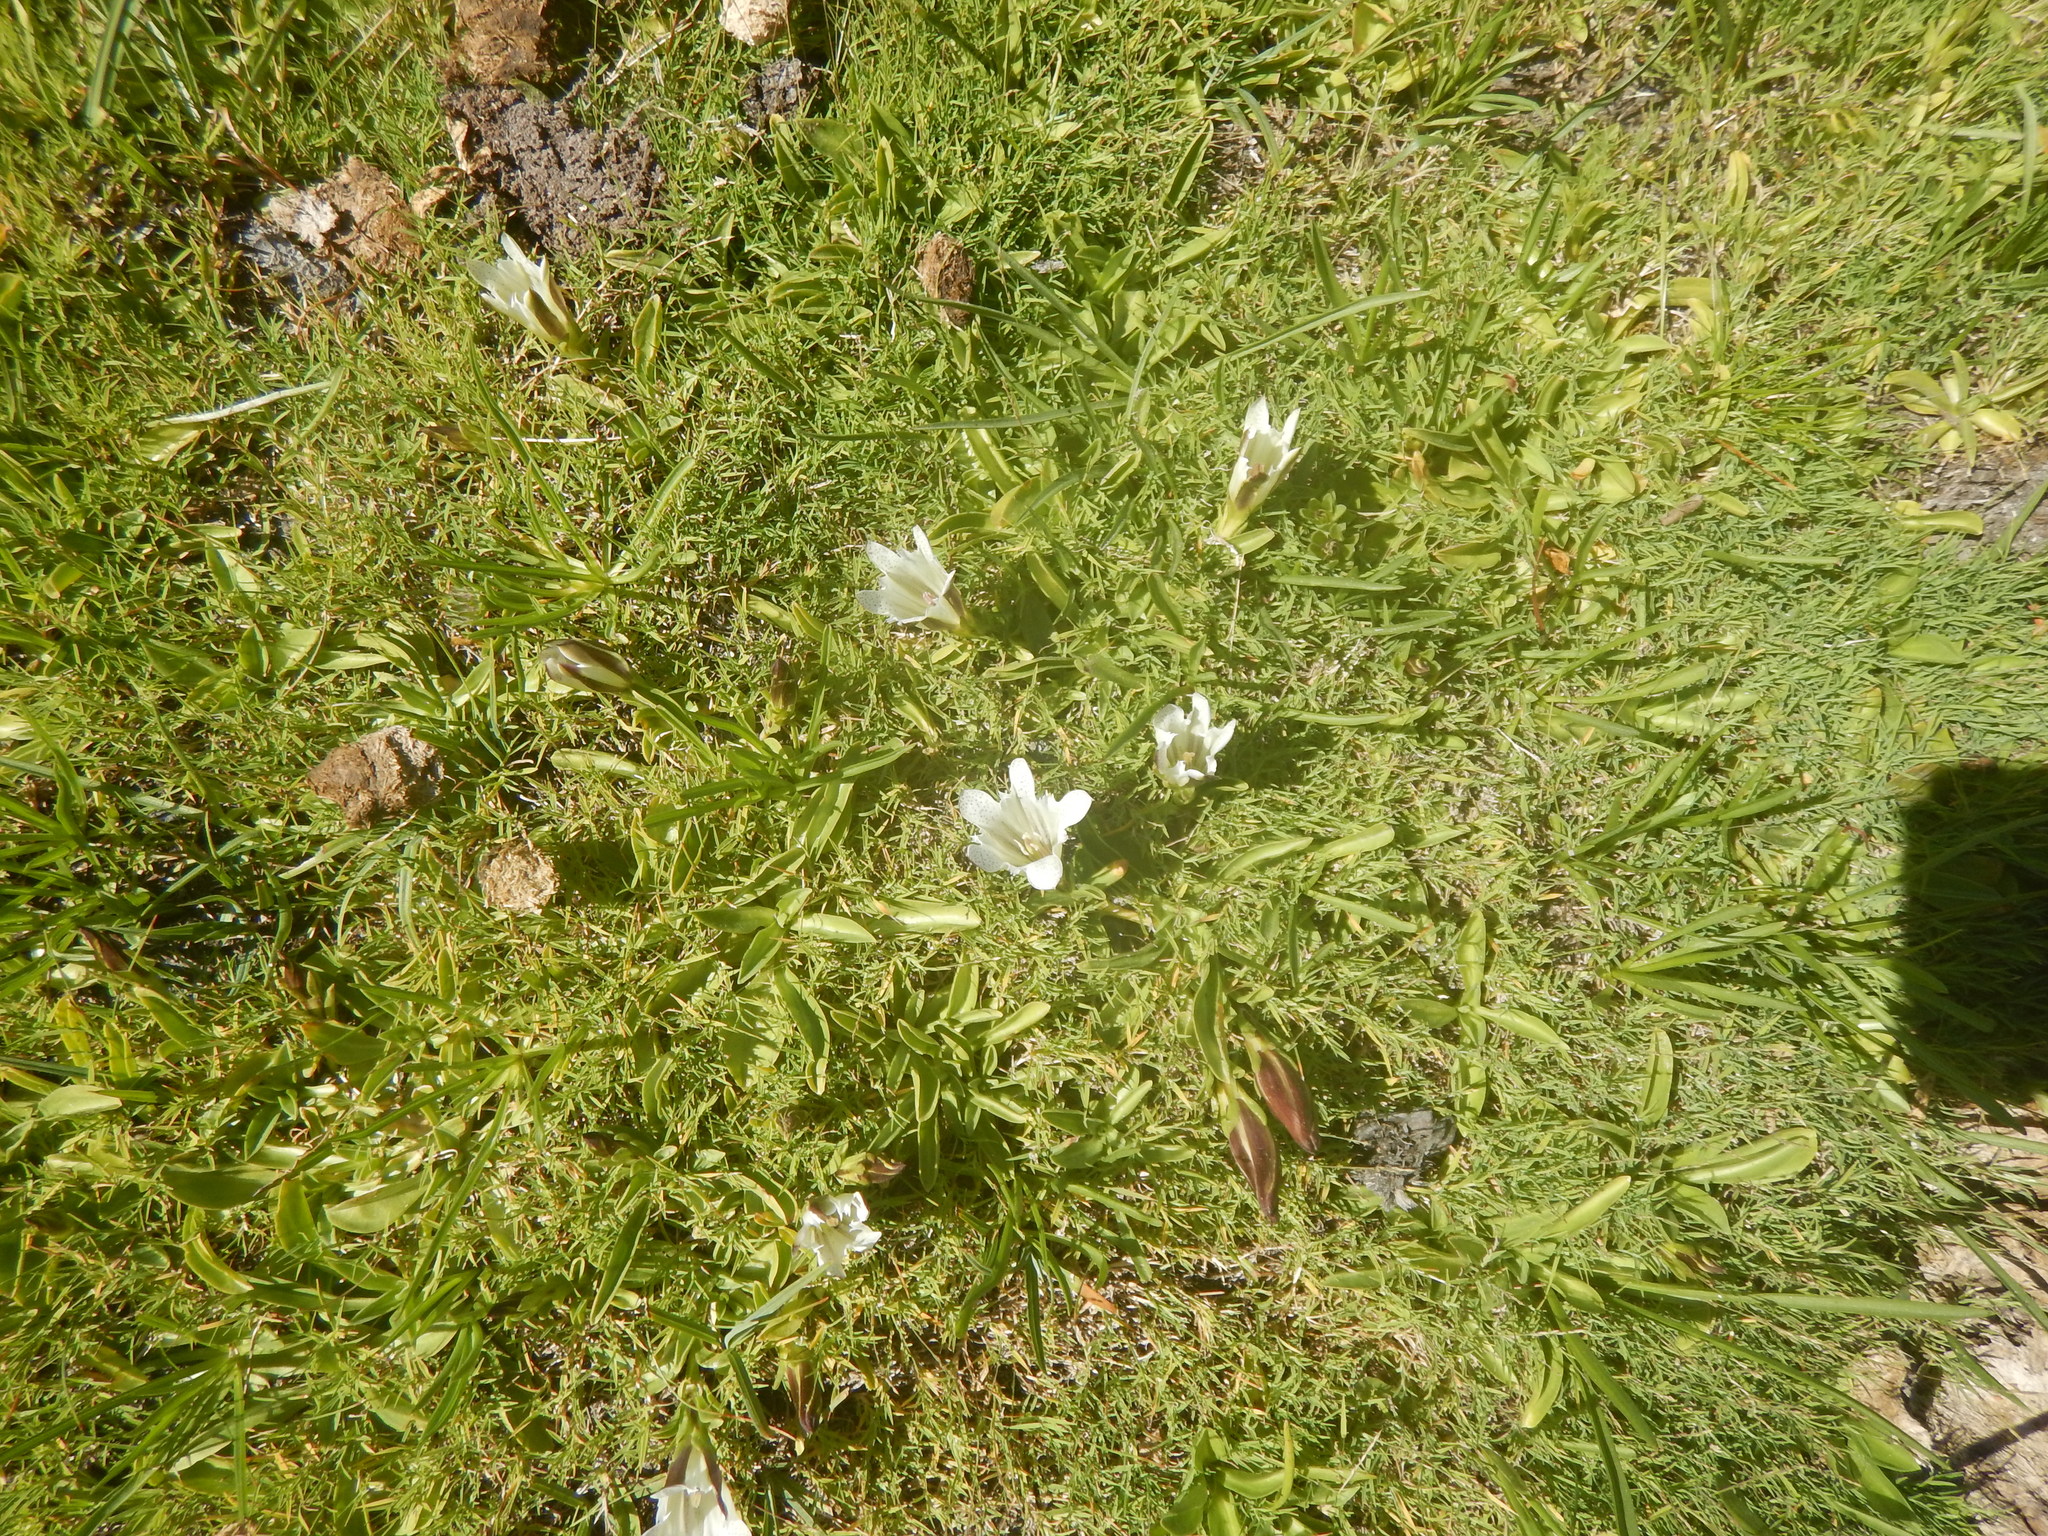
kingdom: Plantae
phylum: Tracheophyta
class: Magnoliopsida
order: Gentianales
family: Gentianaceae
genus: Gentiana
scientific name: Gentiana newberryi
